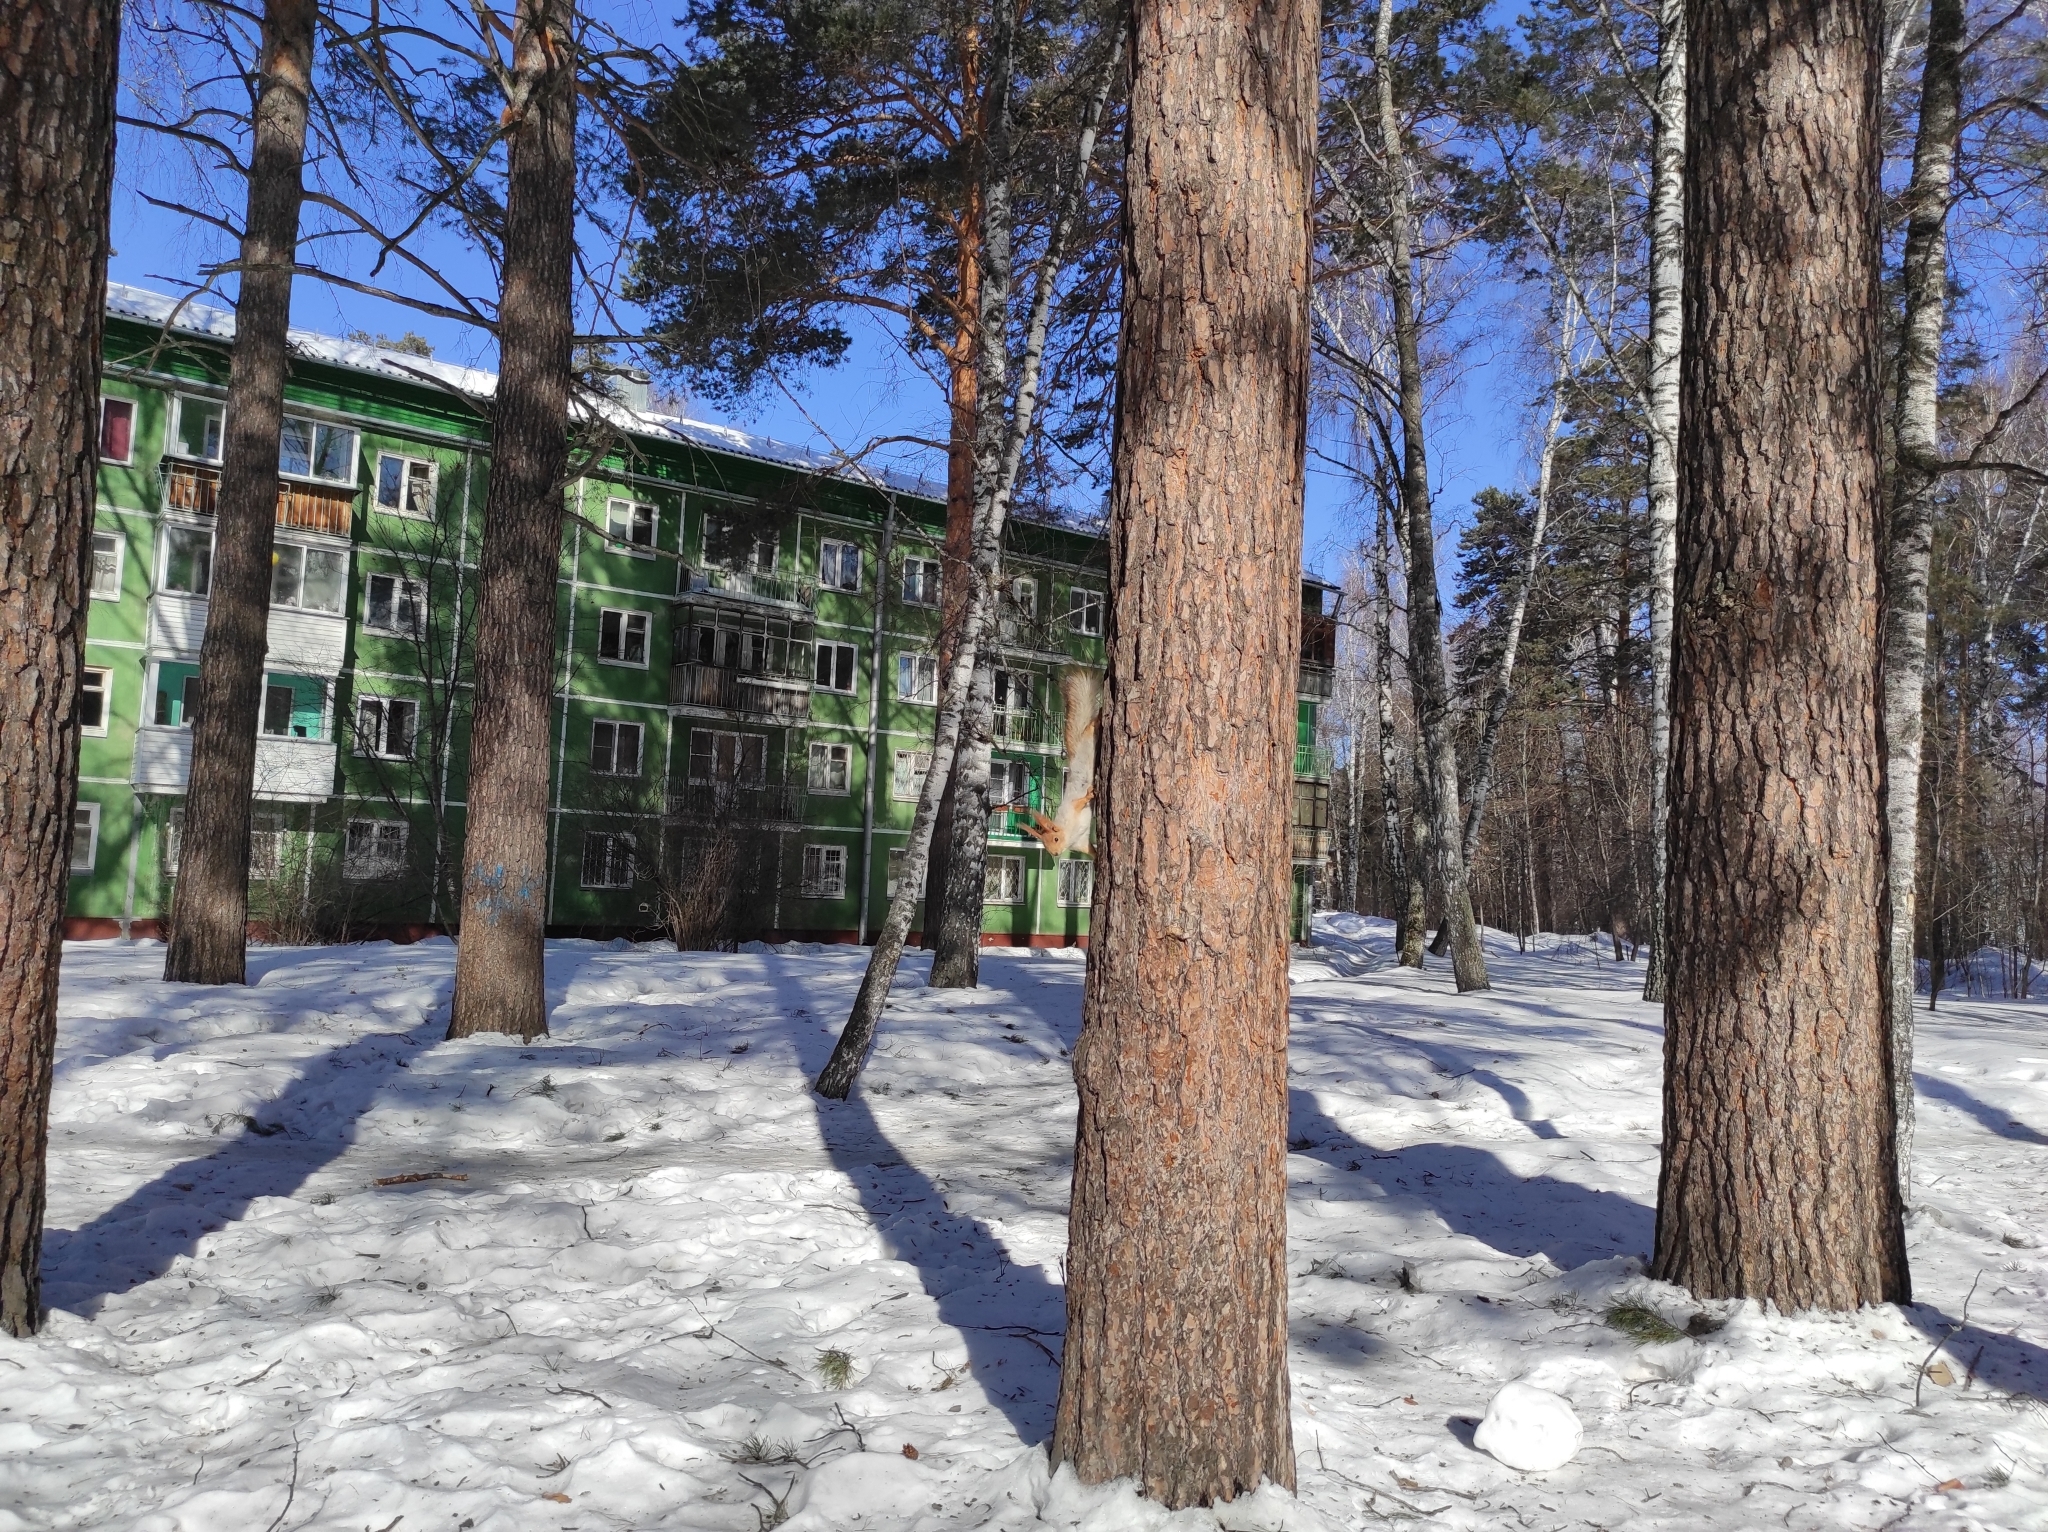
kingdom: Plantae
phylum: Tracheophyta
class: Pinopsida
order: Pinales
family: Pinaceae
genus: Pinus
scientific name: Pinus sylvestris
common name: Scots pine
